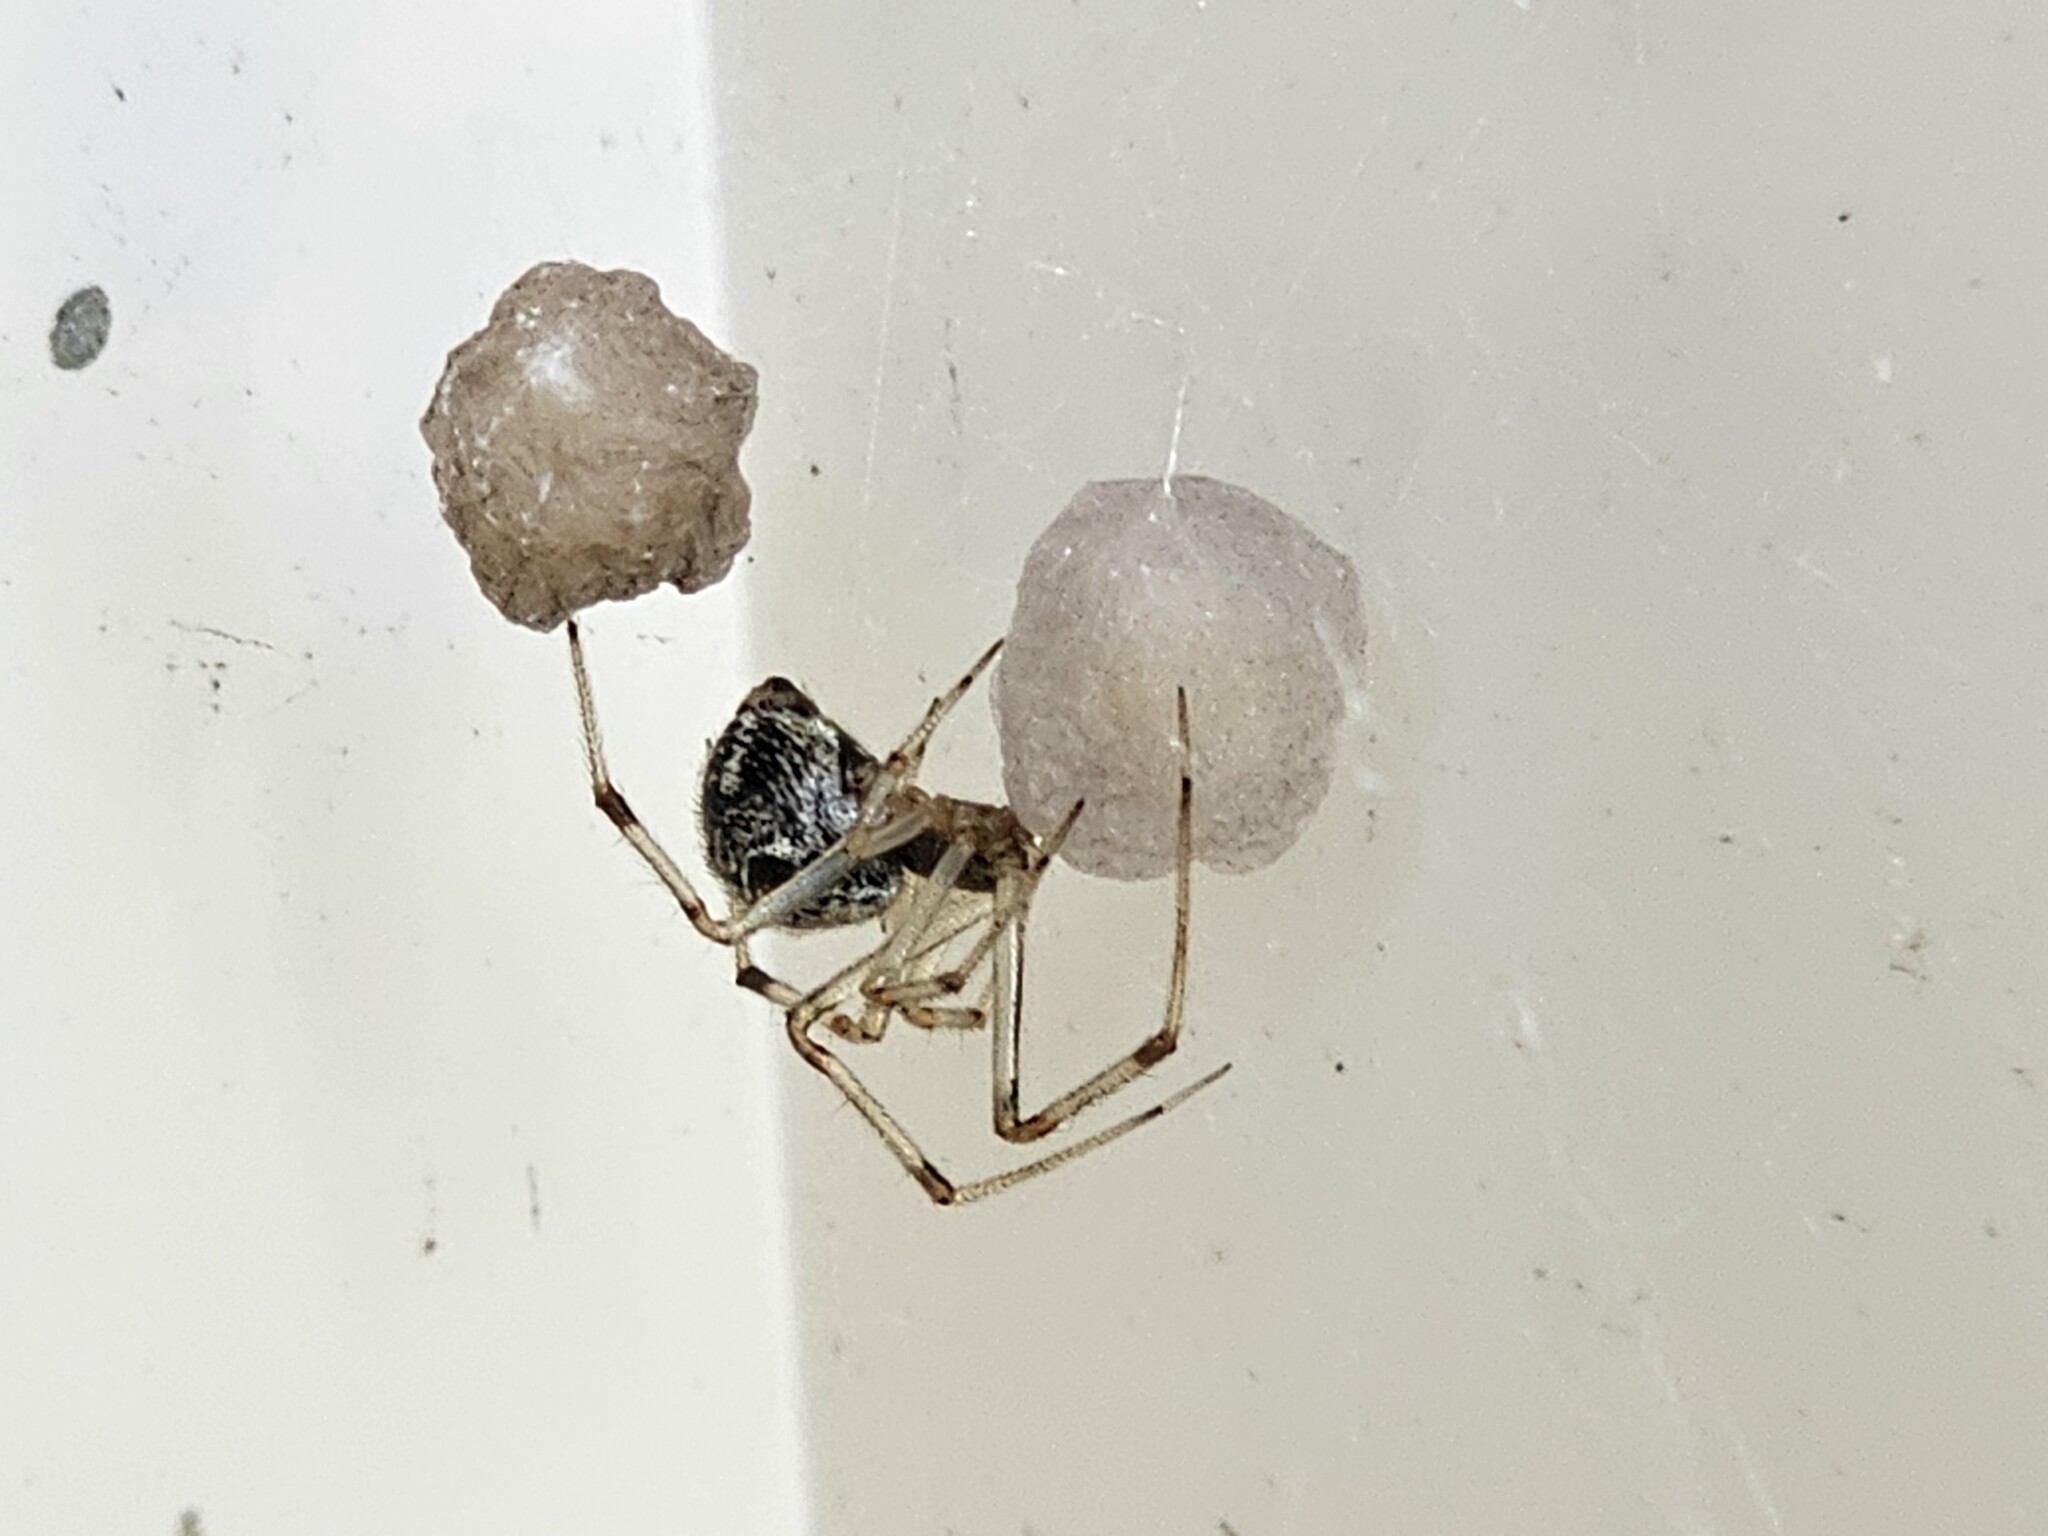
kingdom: Animalia
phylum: Arthropoda
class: Arachnida
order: Araneae
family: Theridiidae
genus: Parasteatoda
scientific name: Parasteatoda tepidariorum
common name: Common house spider
